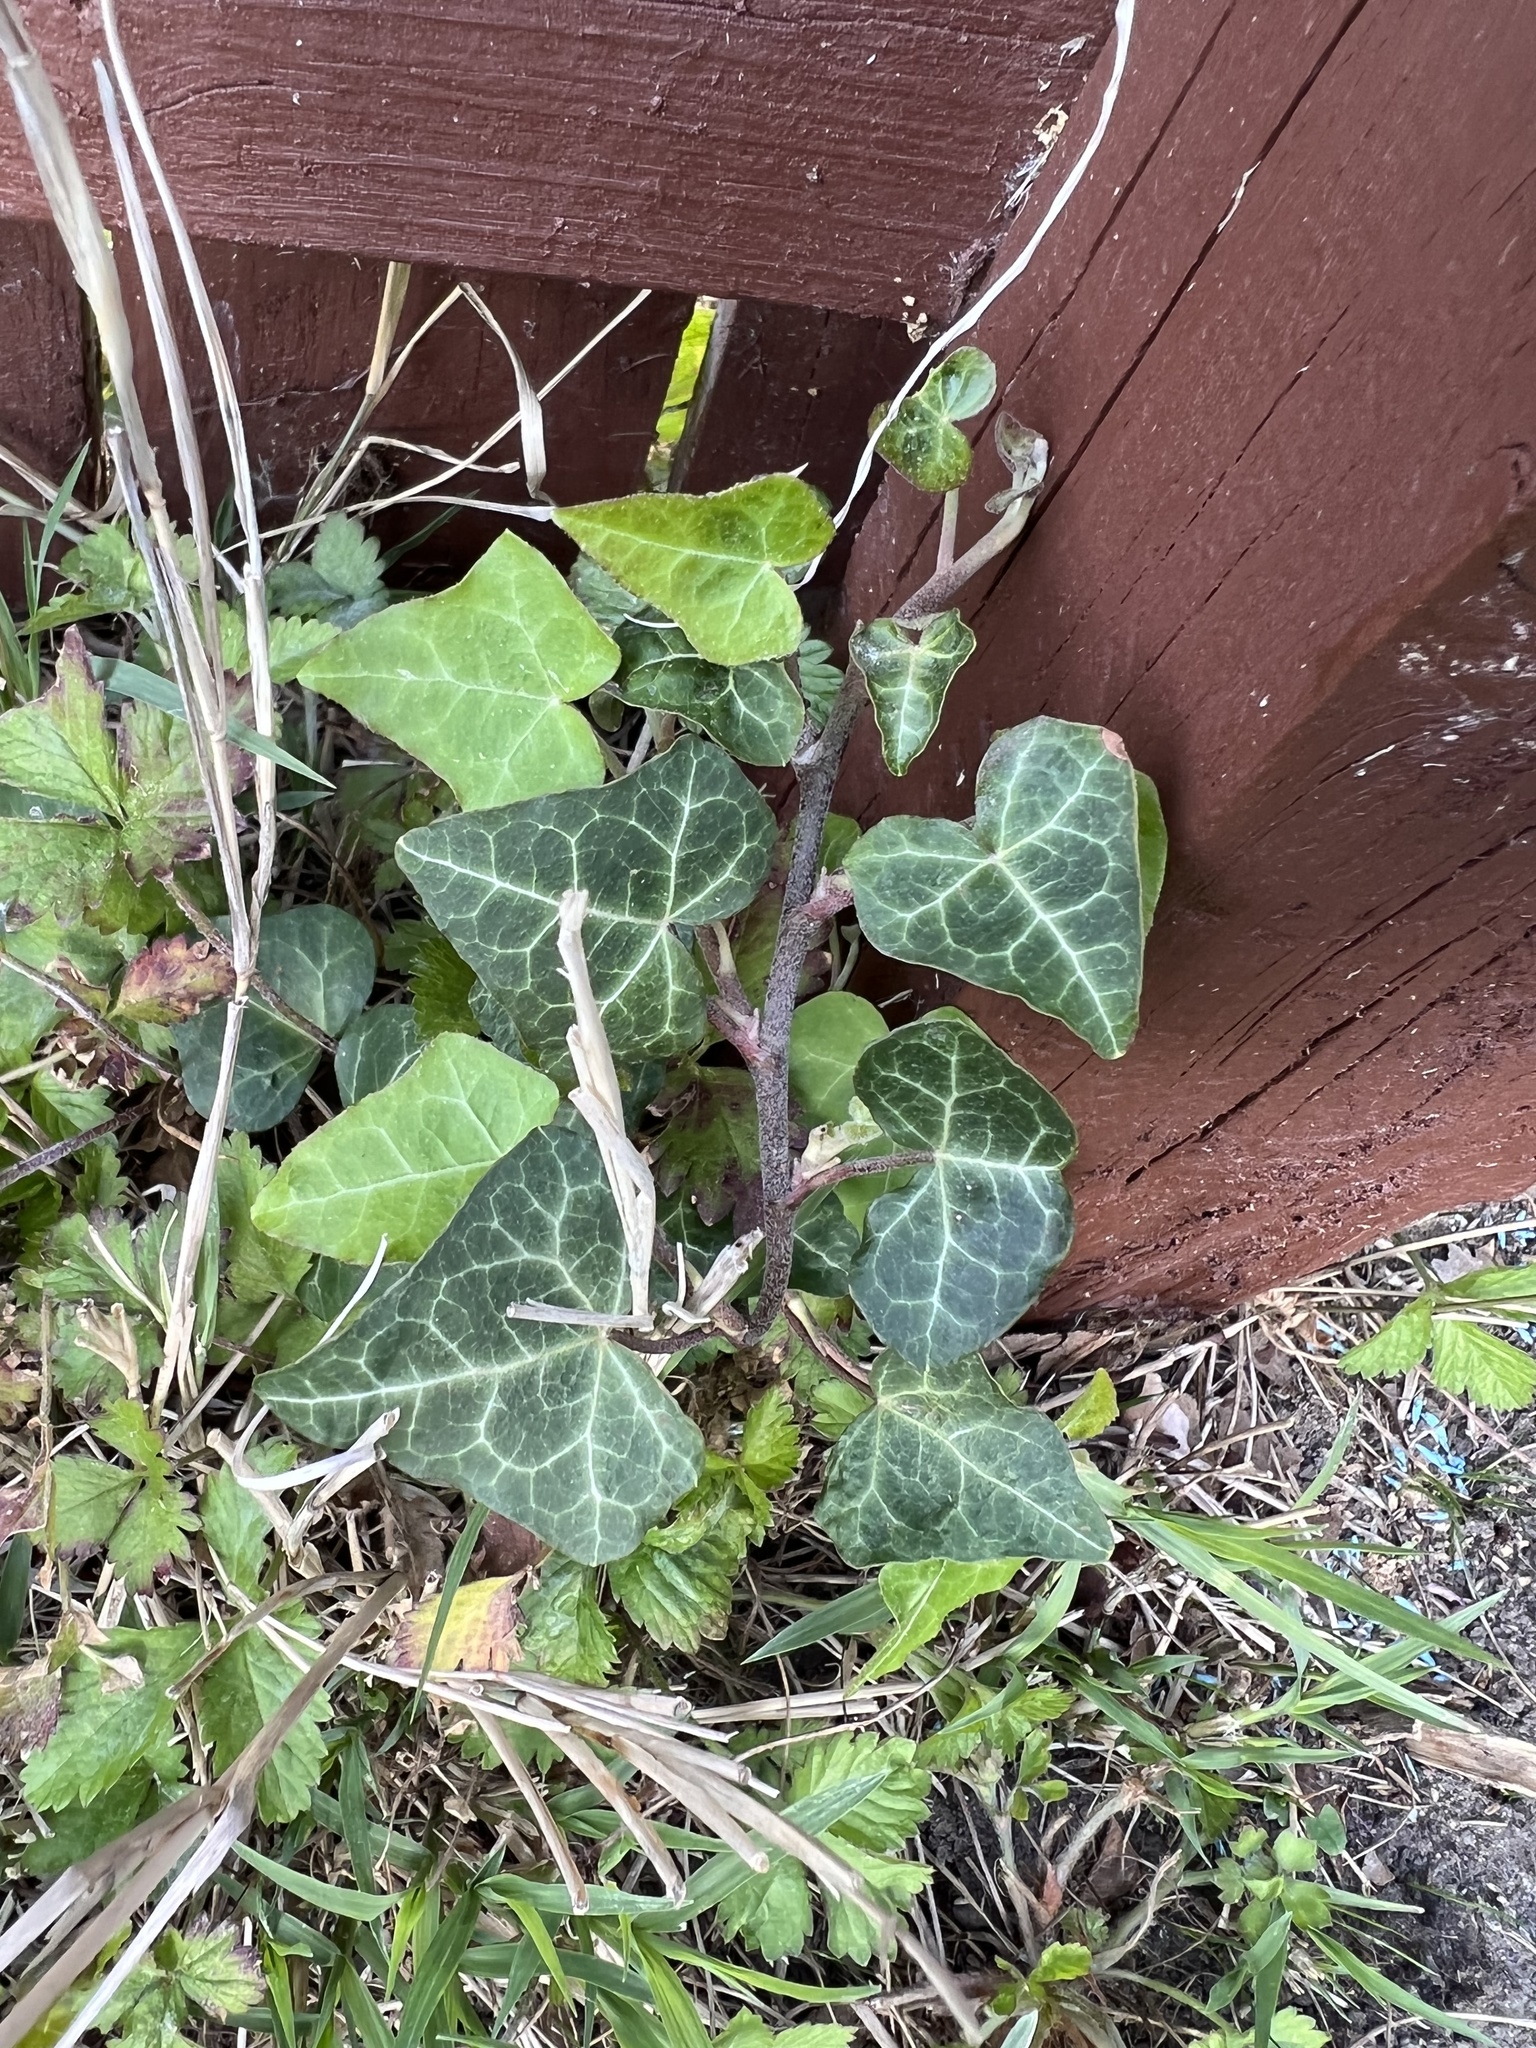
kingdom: Plantae
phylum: Tracheophyta
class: Magnoliopsida
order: Apiales
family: Araliaceae
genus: Hedera
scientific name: Hedera helix
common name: Ivy
